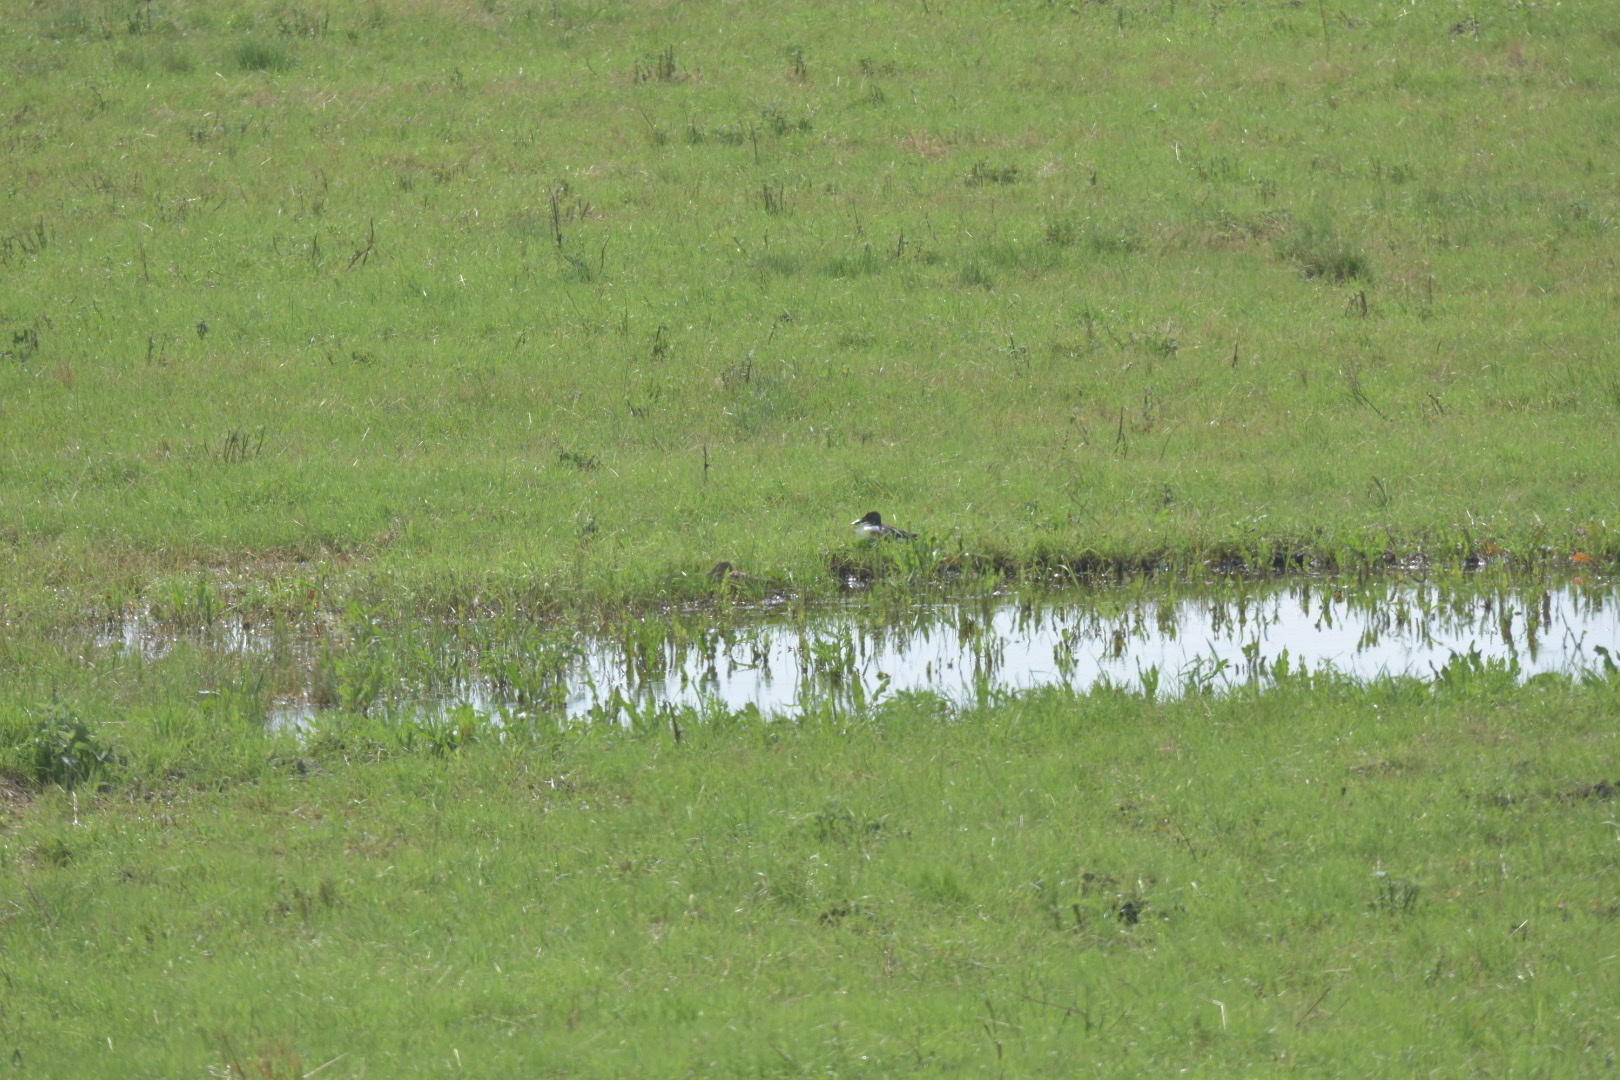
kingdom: Animalia
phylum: Chordata
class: Aves
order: Anseriformes
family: Anatidae
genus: Spatula
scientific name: Spatula clypeata
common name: Northern shoveler
